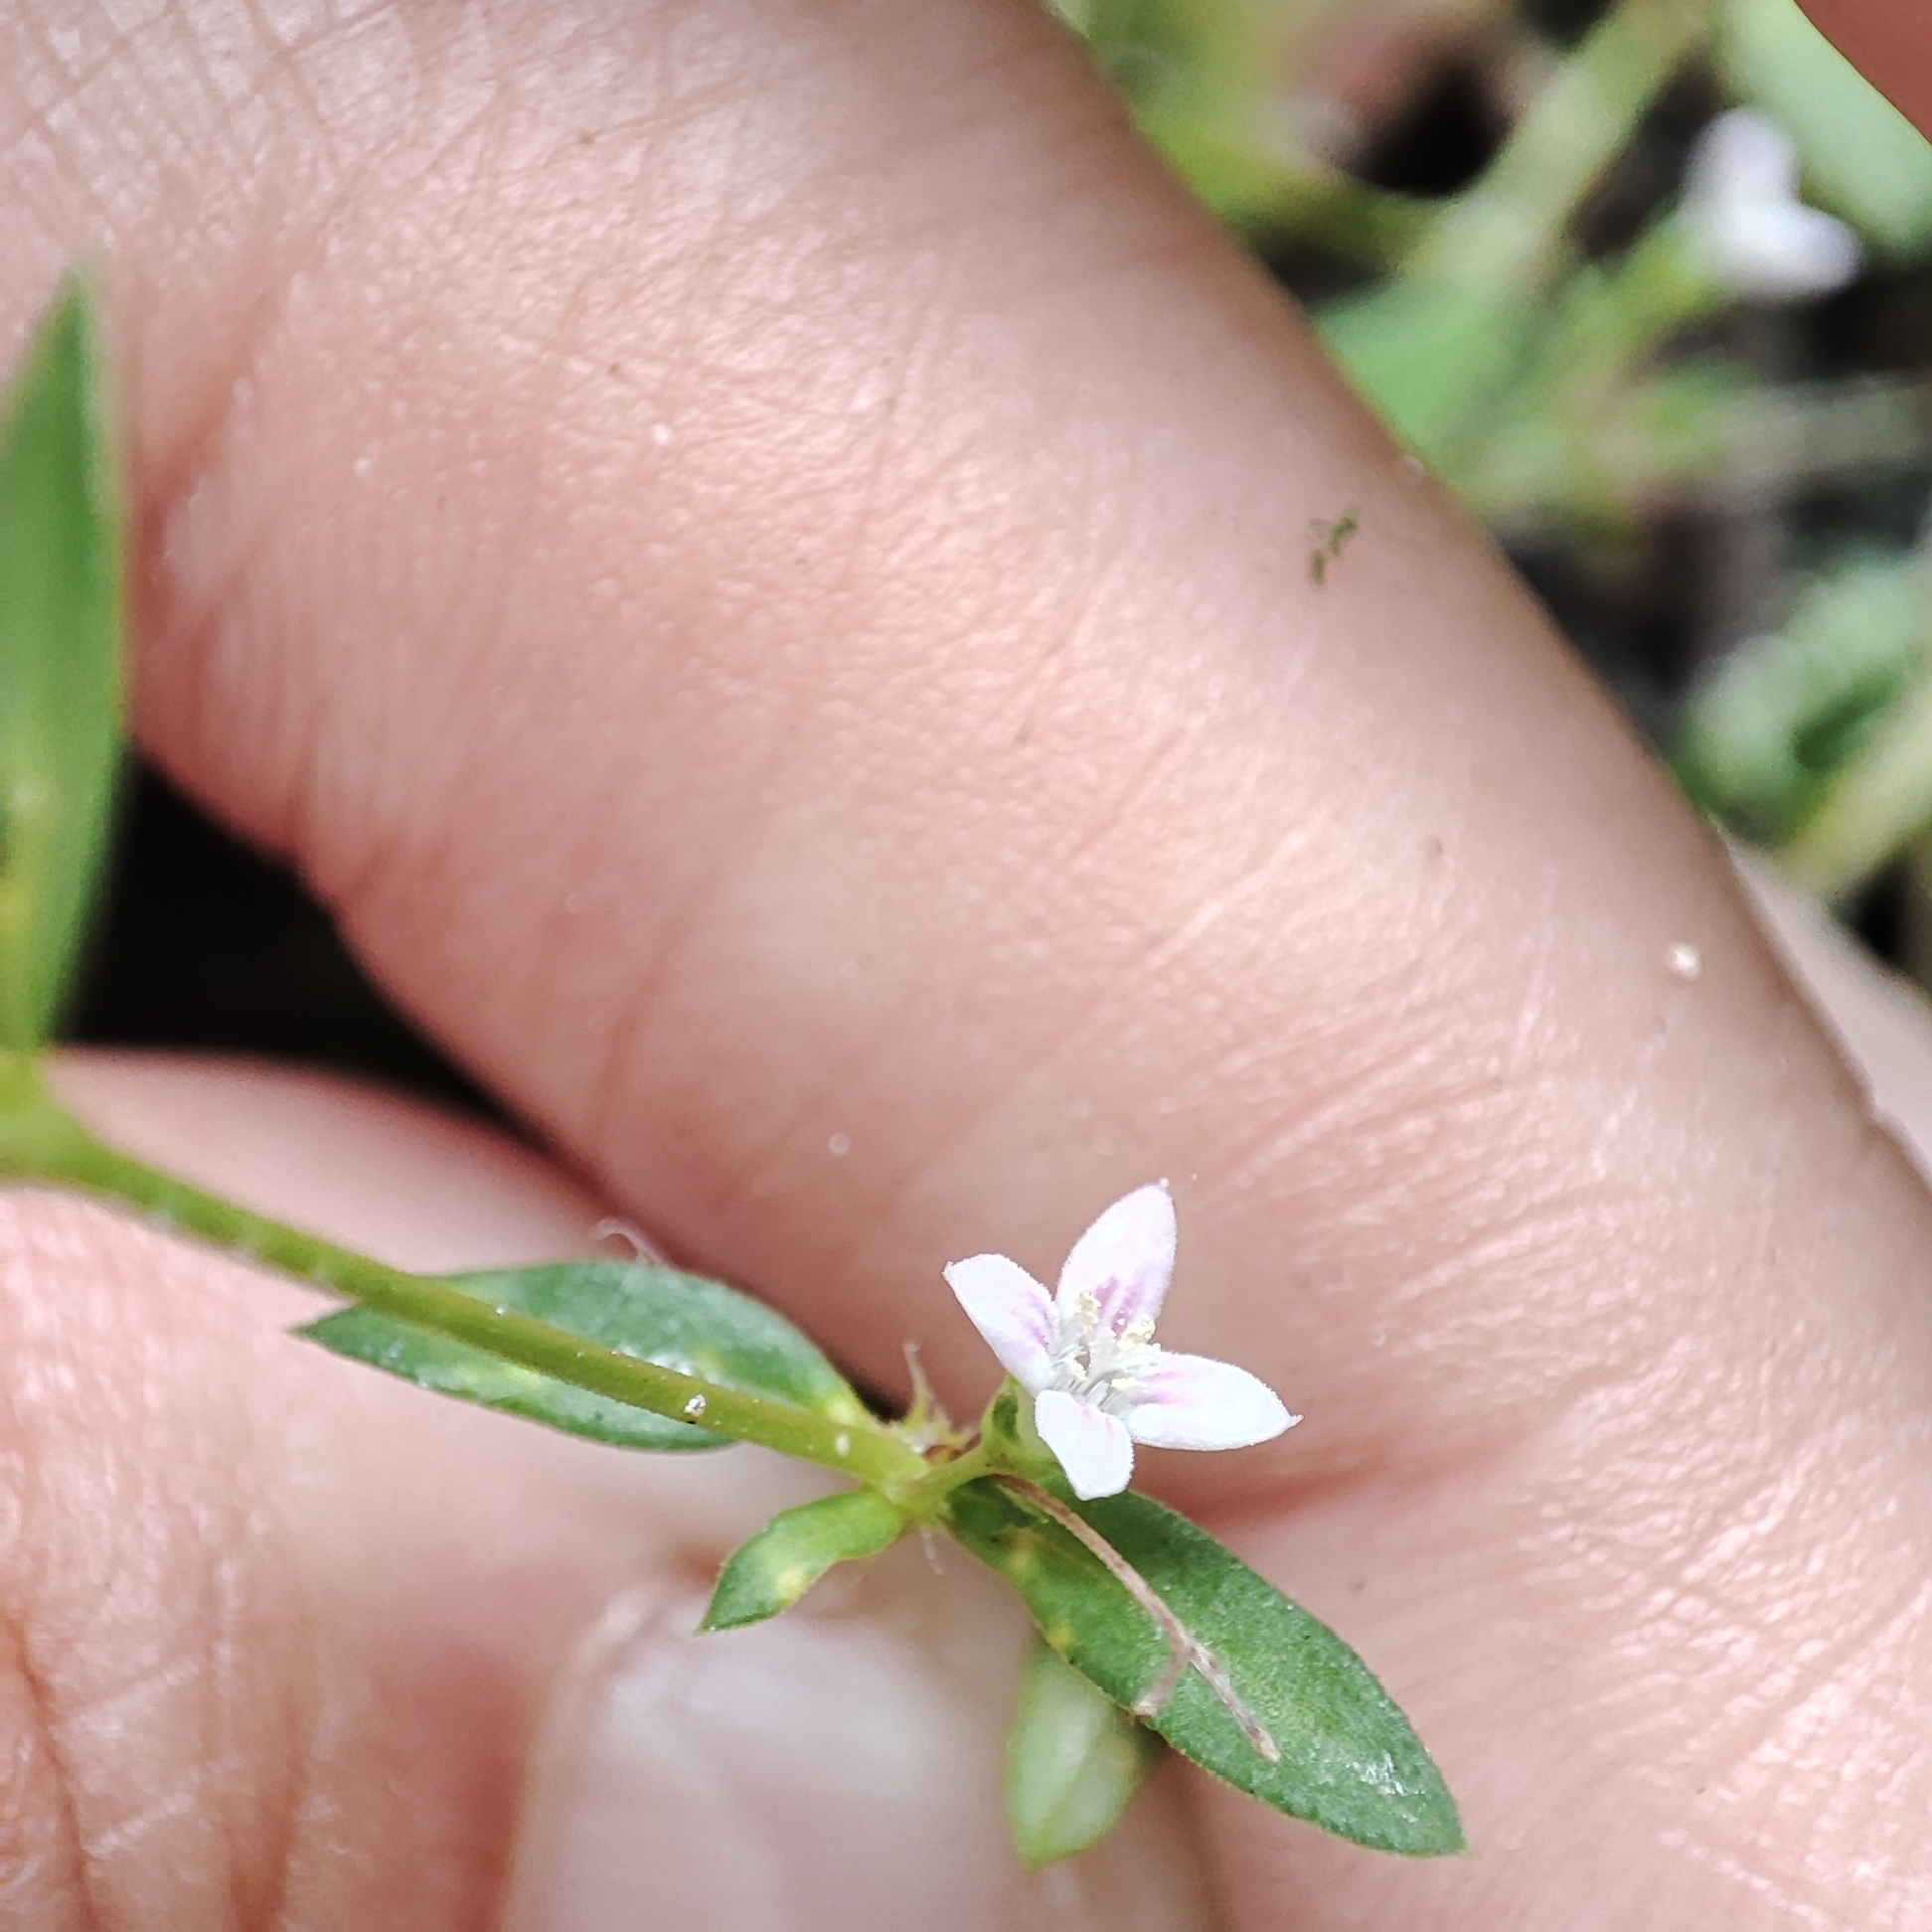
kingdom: Plantae
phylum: Tracheophyta
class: Magnoliopsida
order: Gentianales
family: Rubiaceae
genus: Oldenlandia
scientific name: Oldenlandia corymbosa
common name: Flat-top mille graines
